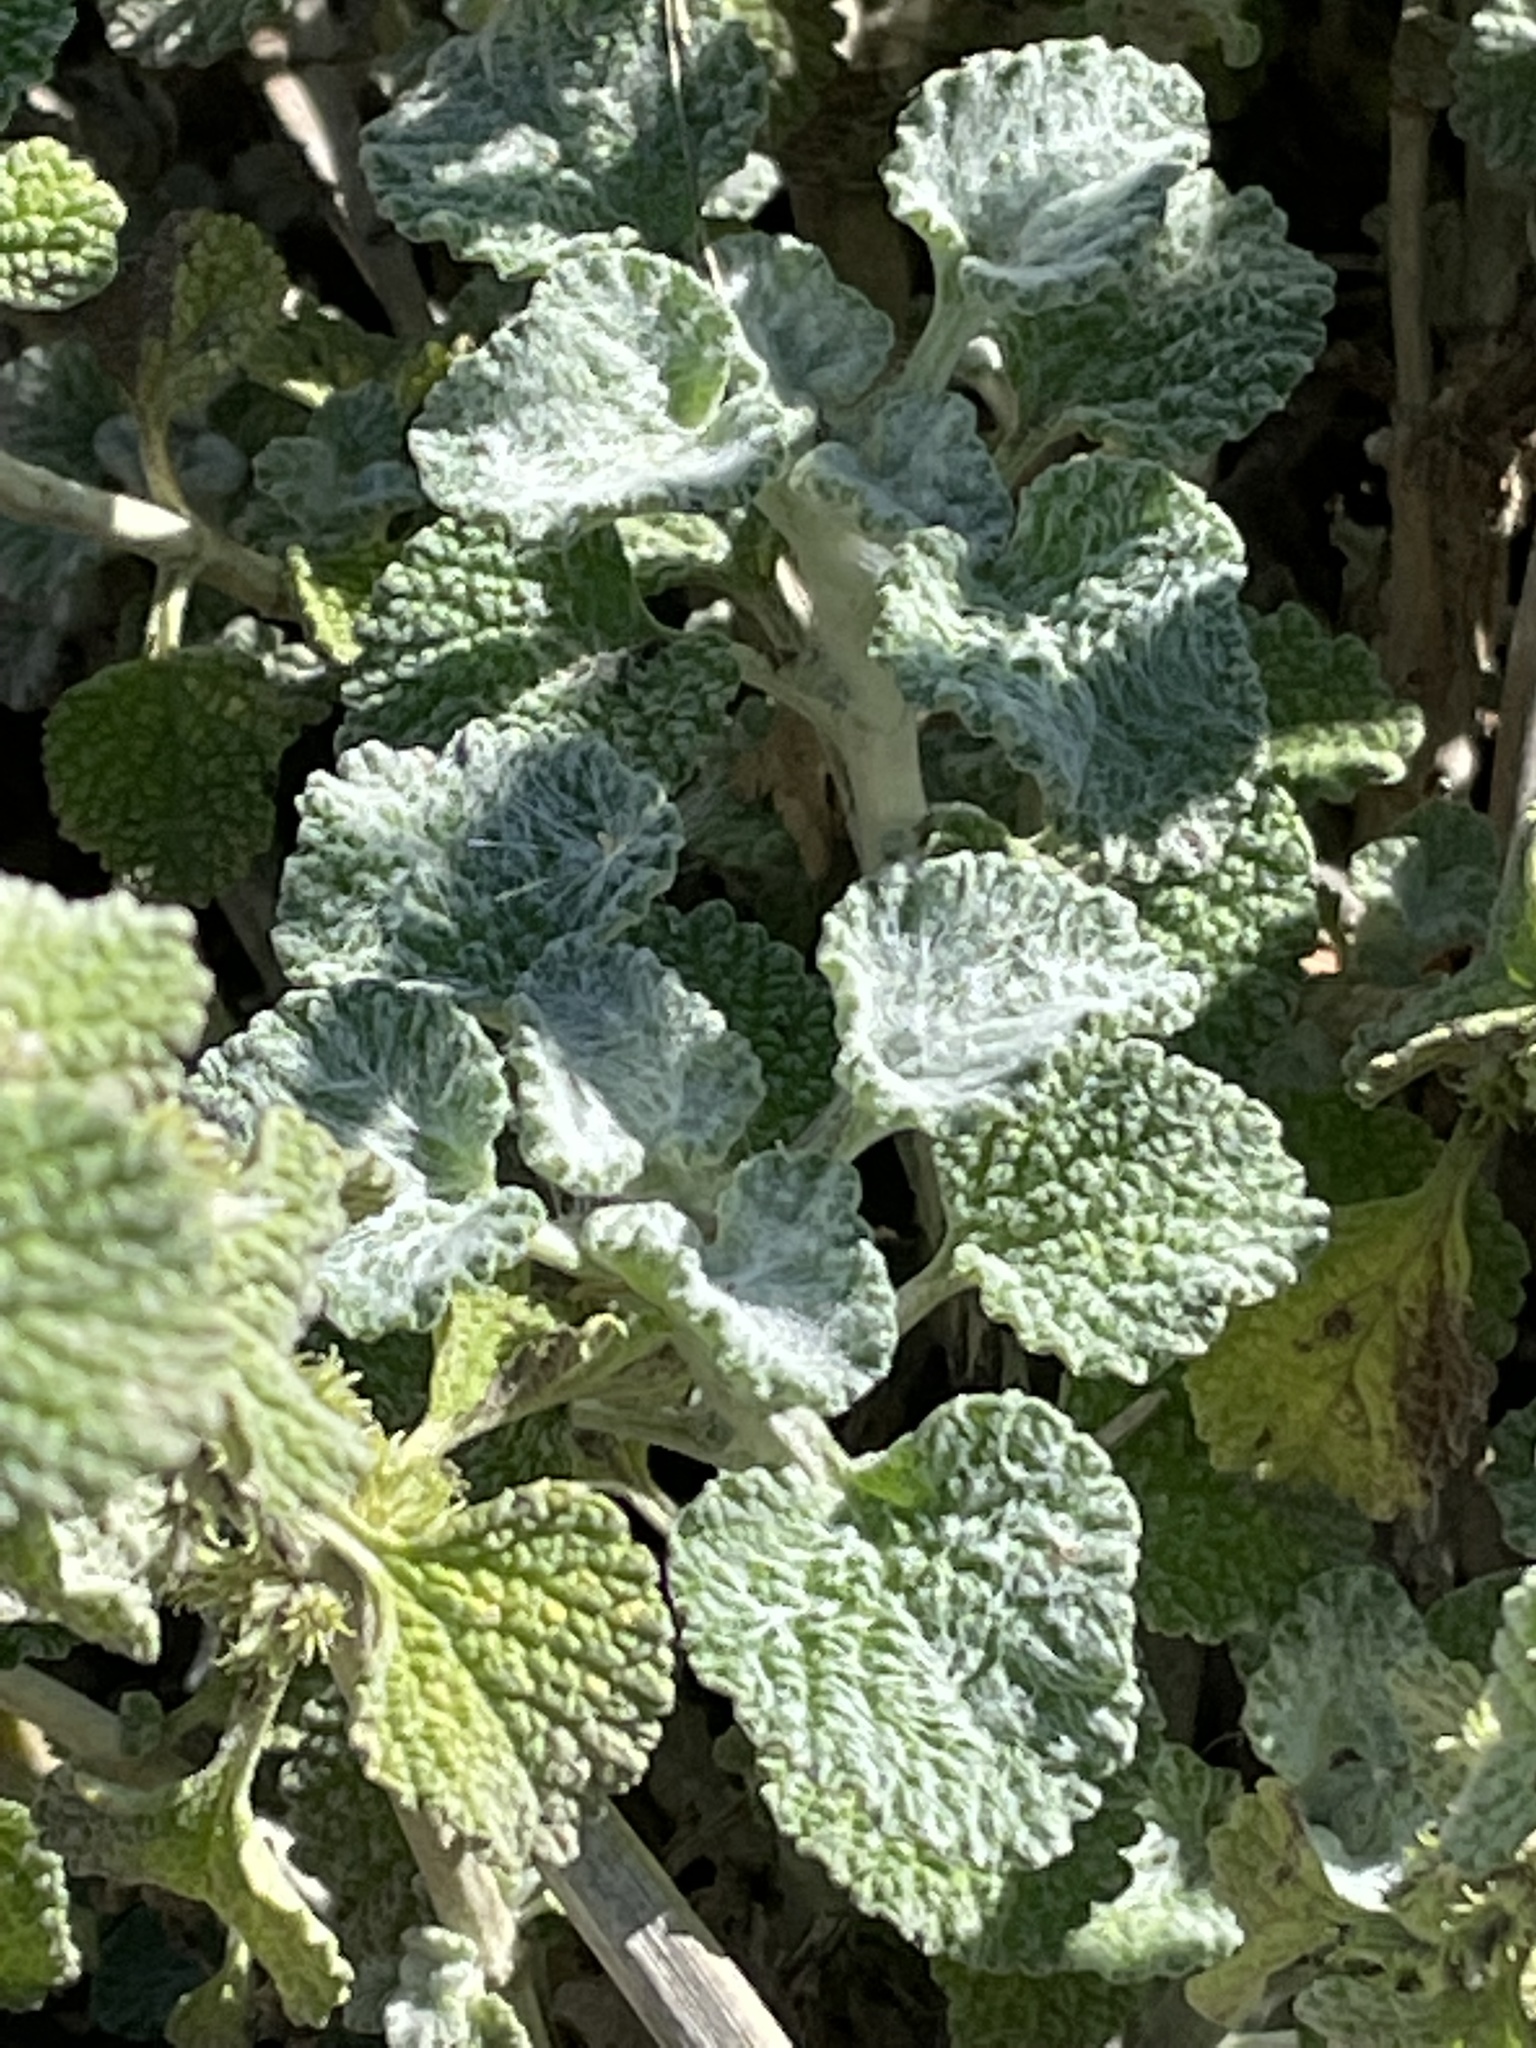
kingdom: Plantae
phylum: Tracheophyta
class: Magnoliopsida
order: Lamiales
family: Lamiaceae
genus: Marrubium
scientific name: Marrubium vulgare
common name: Horehound
